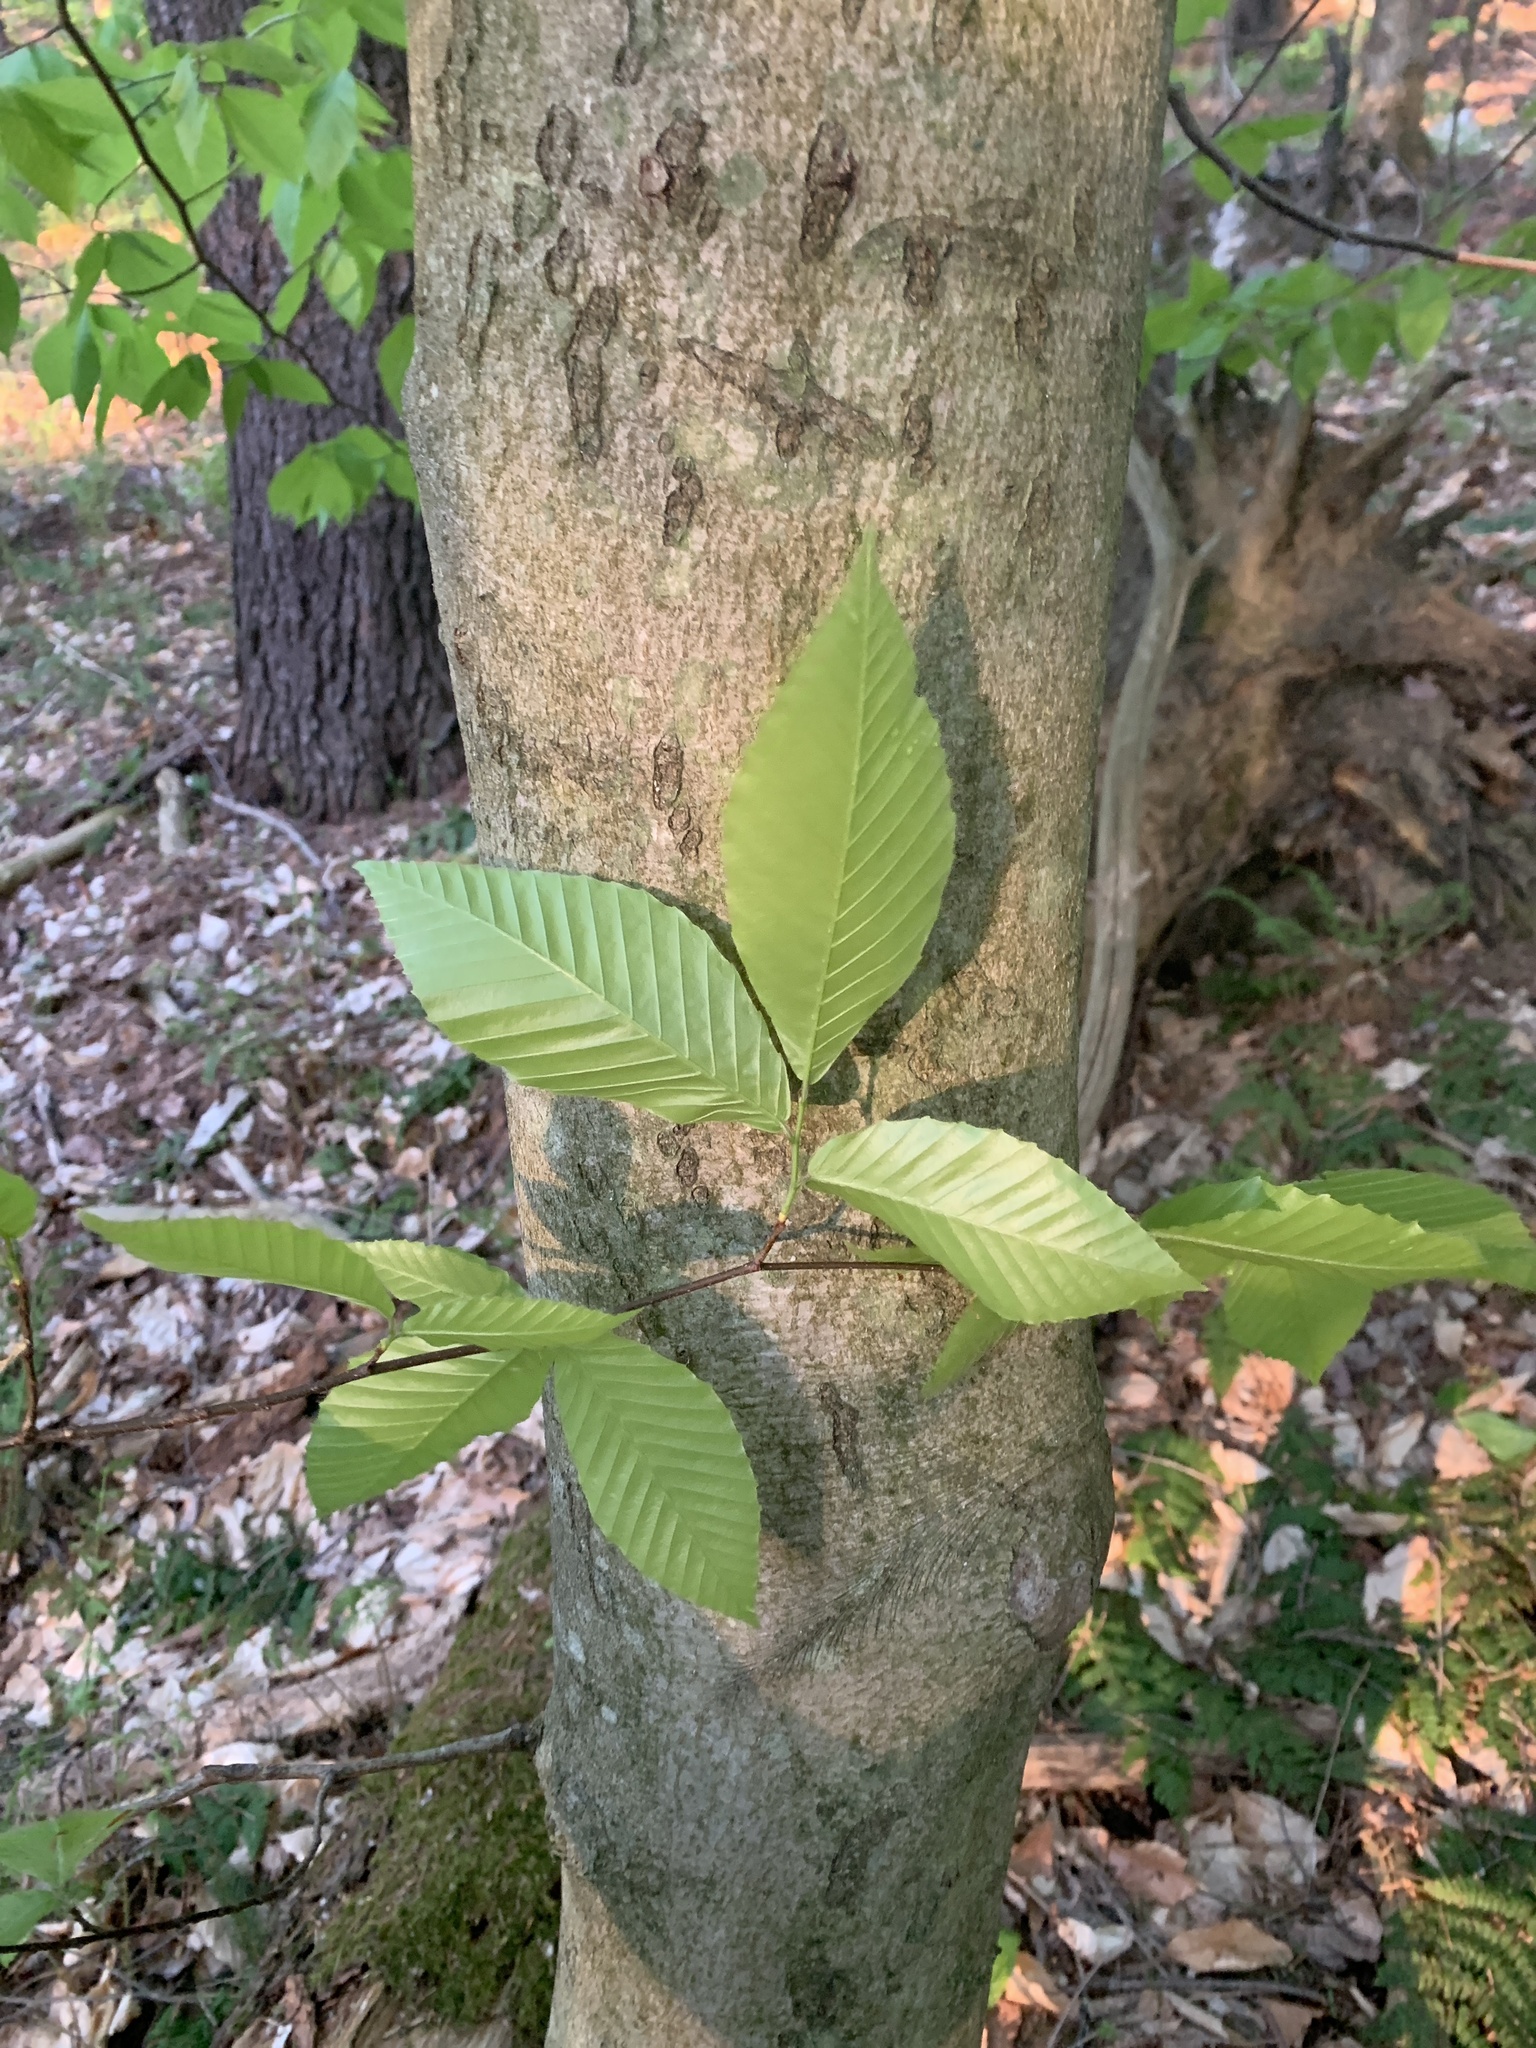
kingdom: Plantae
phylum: Tracheophyta
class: Magnoliopsida
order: Fagales
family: Fagaceae
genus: Fagus
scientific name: Fagus grandifolia
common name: American beech
